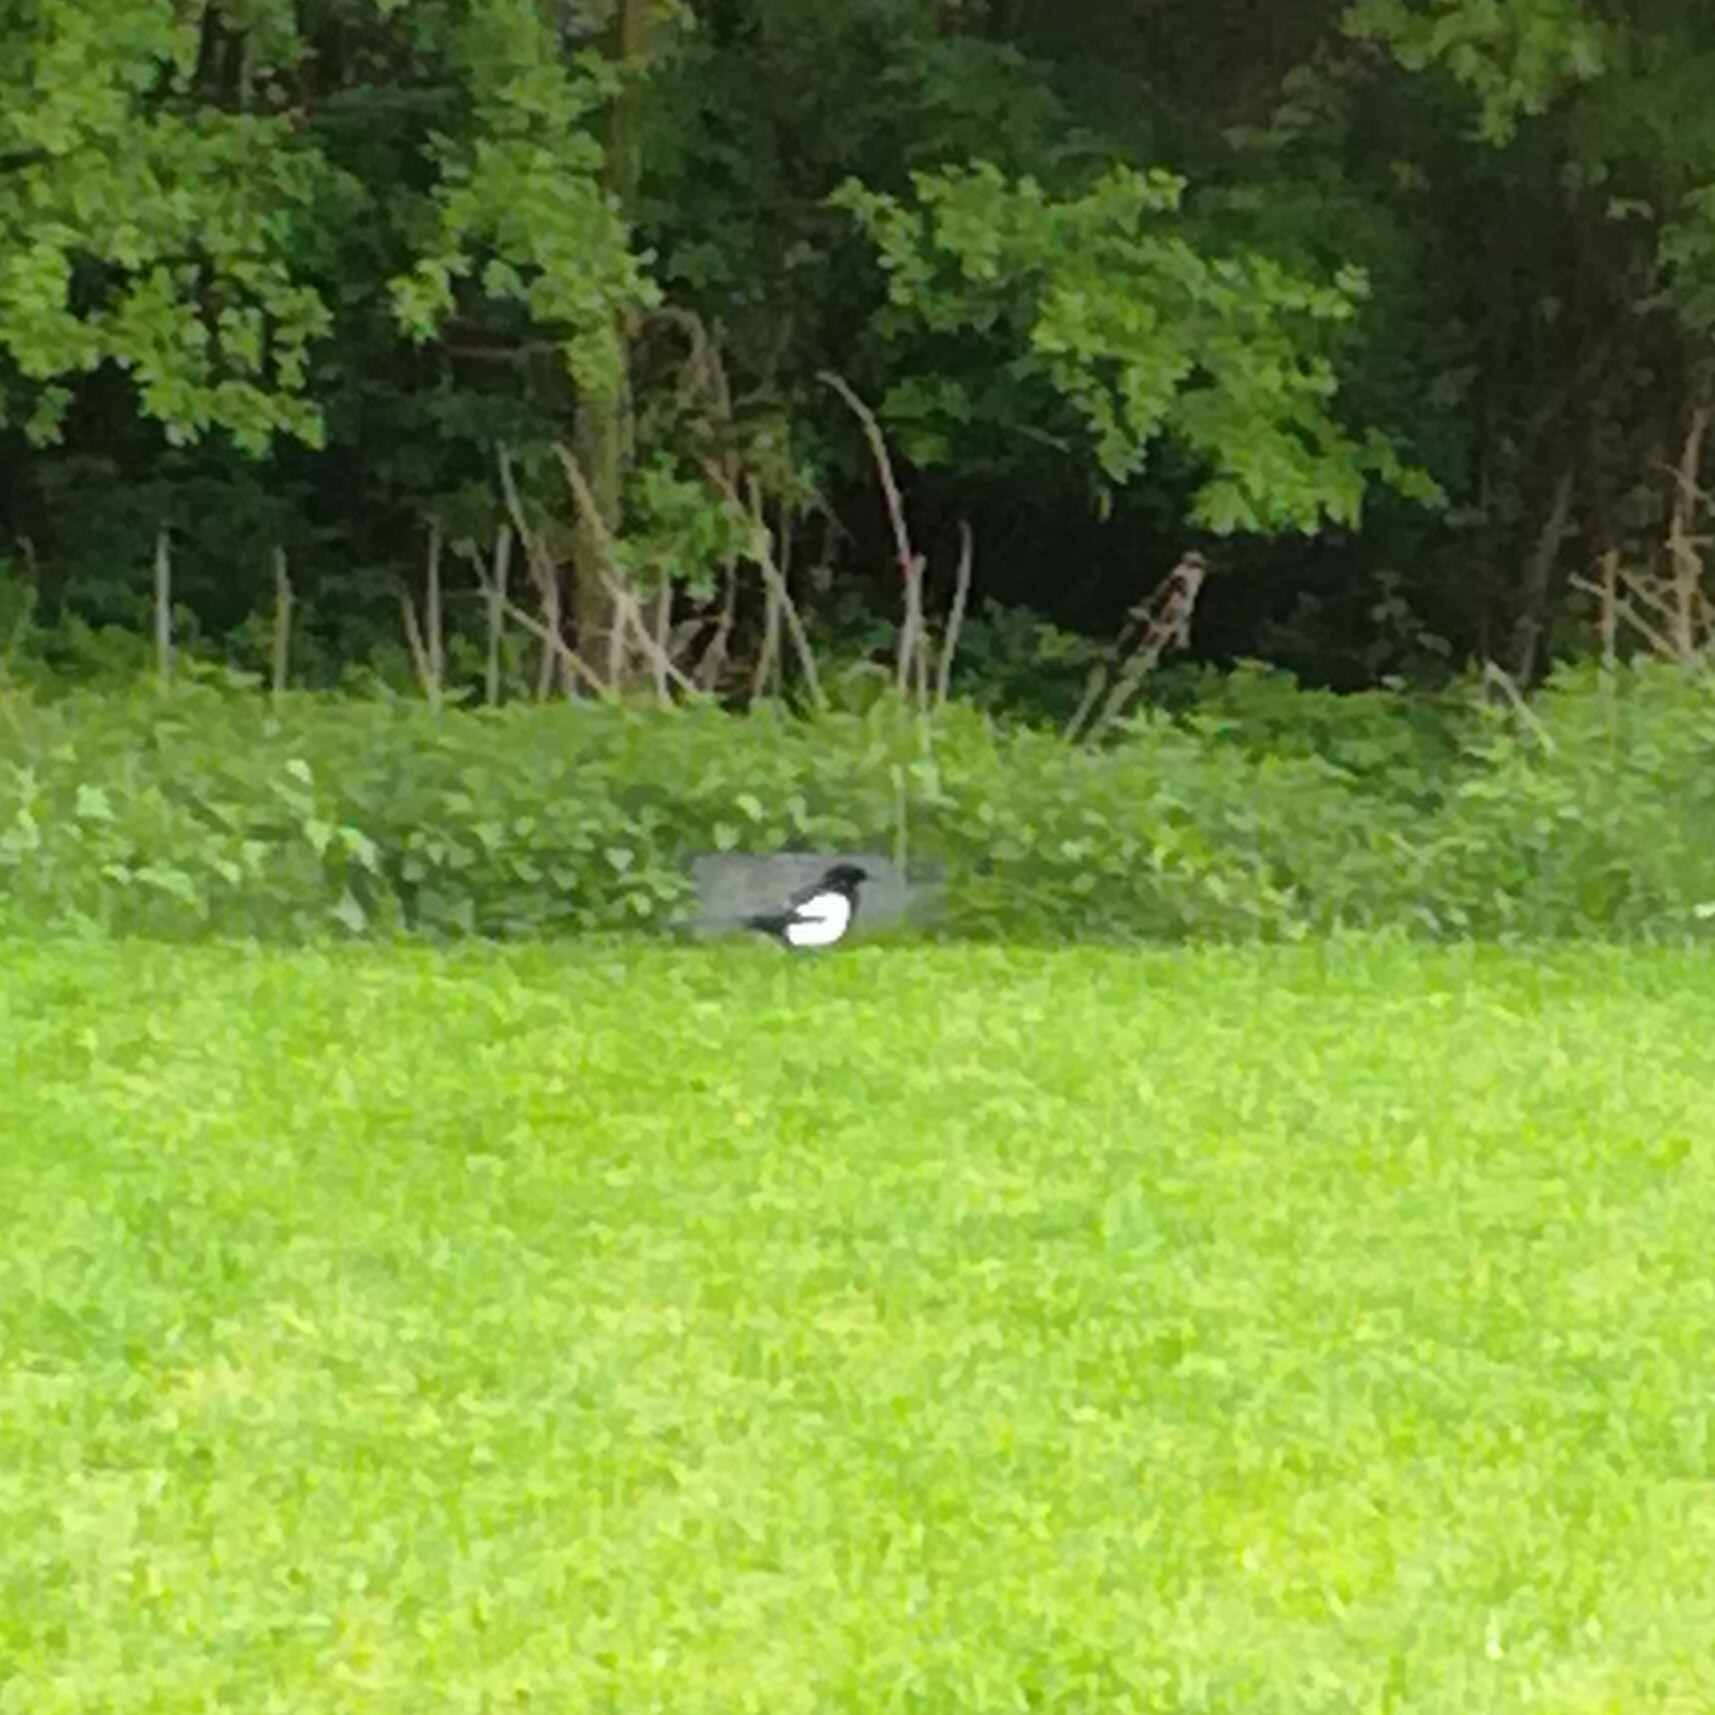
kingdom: Animalia
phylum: Chordata
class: Aves
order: Passeriformes
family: Corvidae
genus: Pica
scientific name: Pica pica
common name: Eurasian magpie
